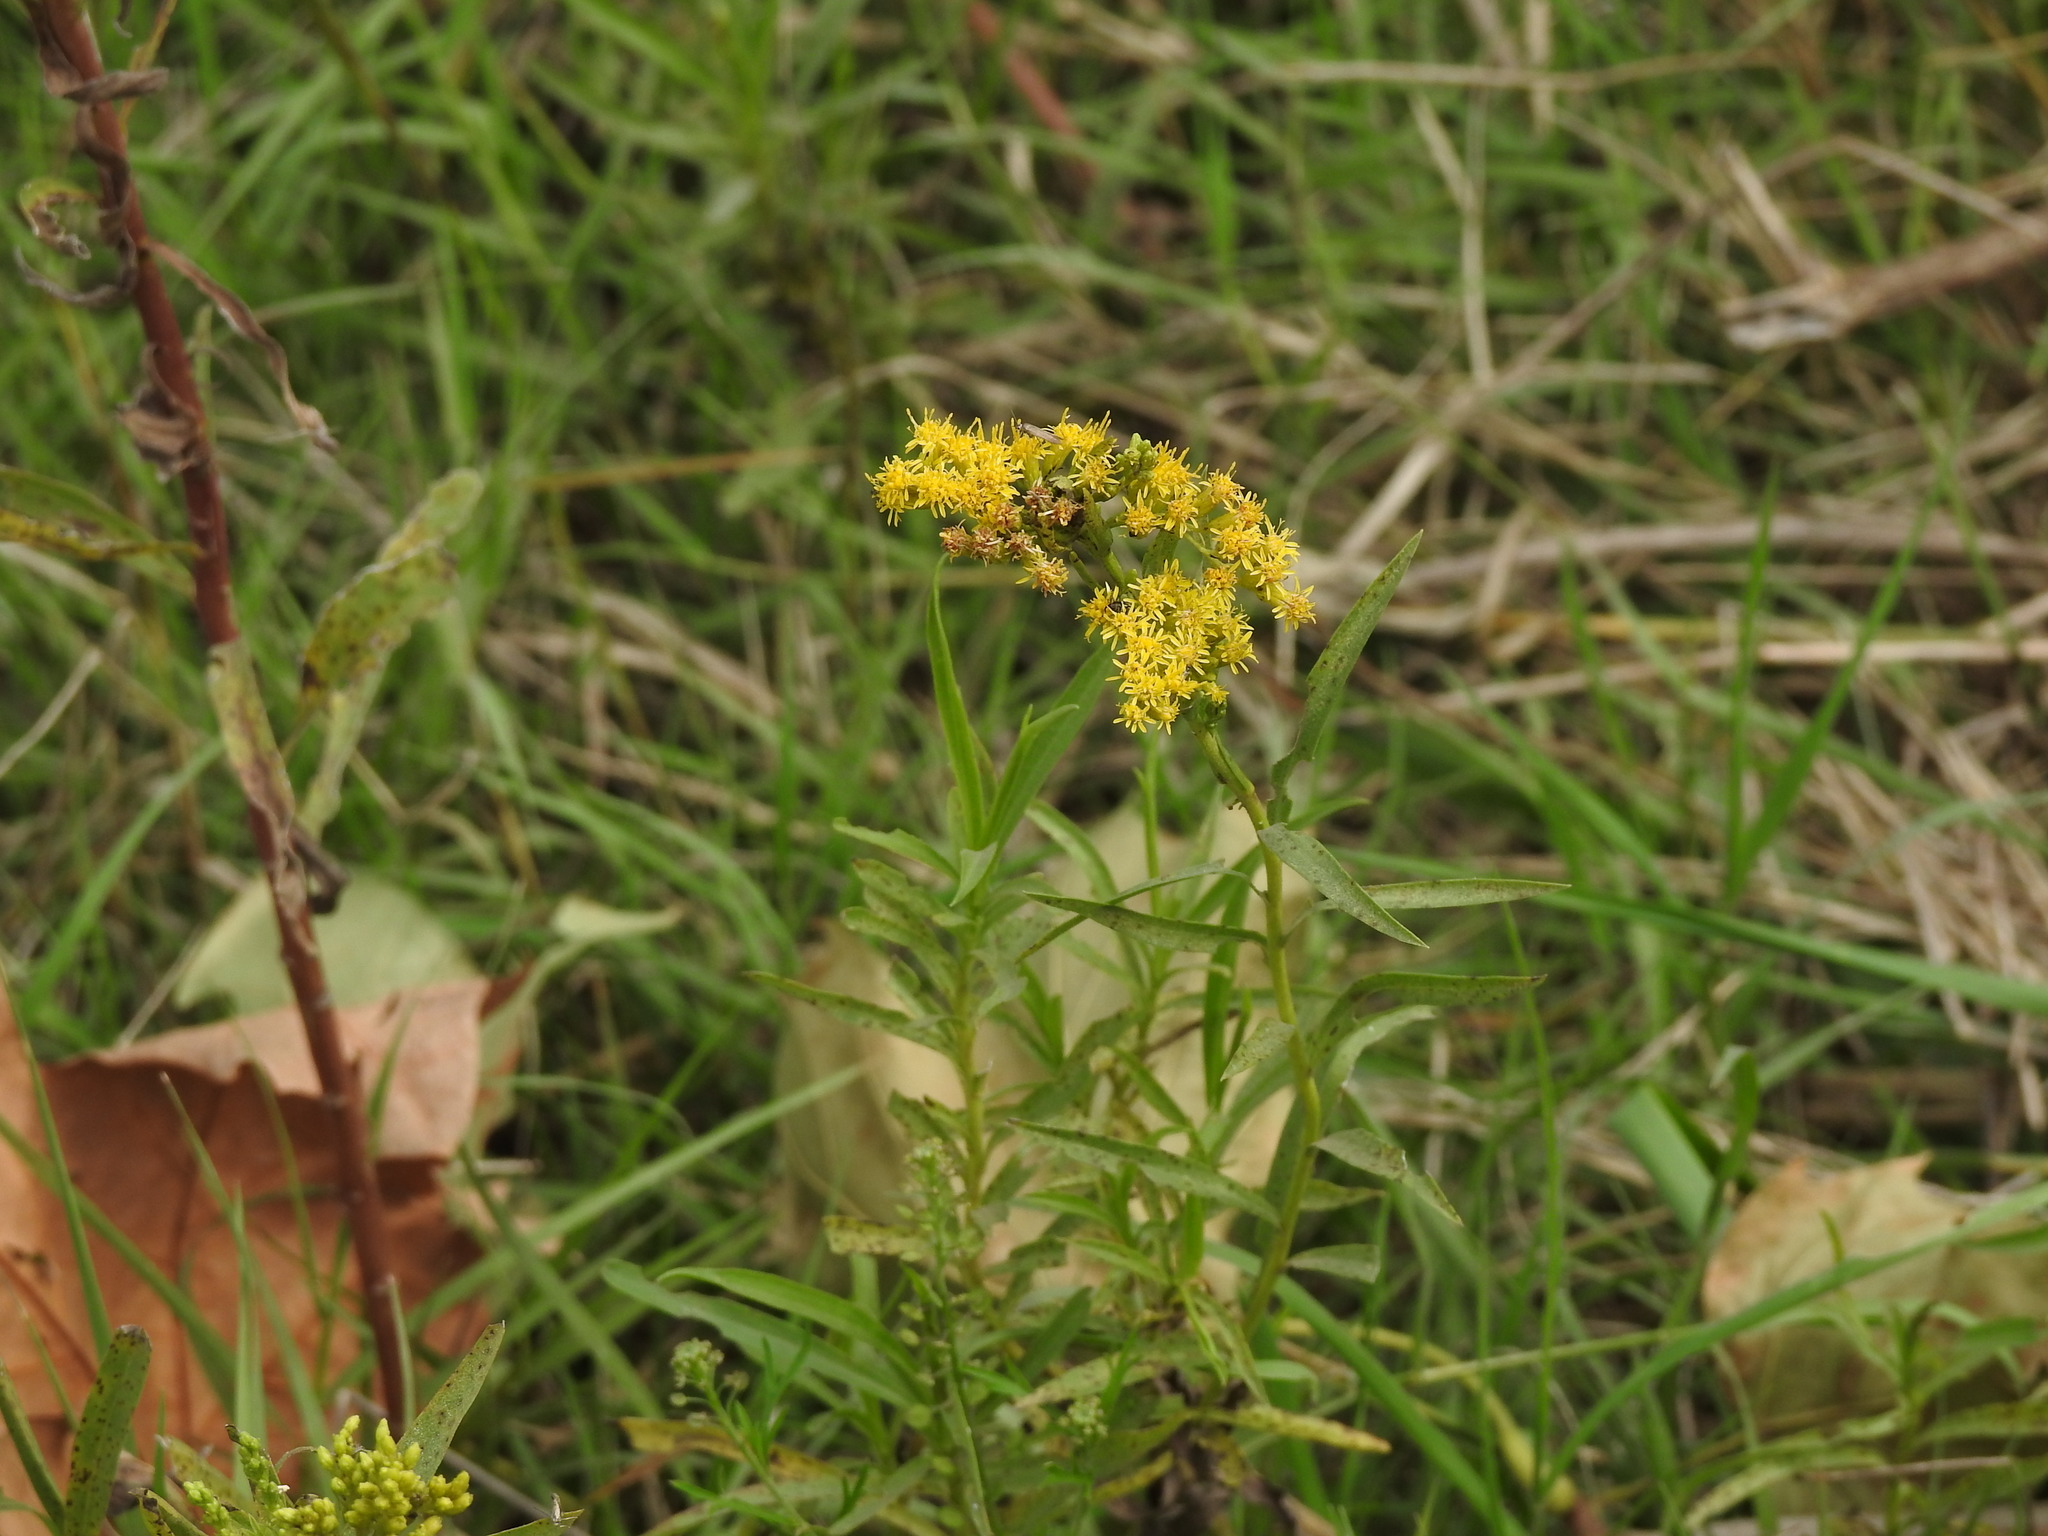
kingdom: Plantae
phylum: Tracheophyta
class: Magnoliopsida
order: Asterales
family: Asteraceae
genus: Solidago
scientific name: Solidago chilensis
